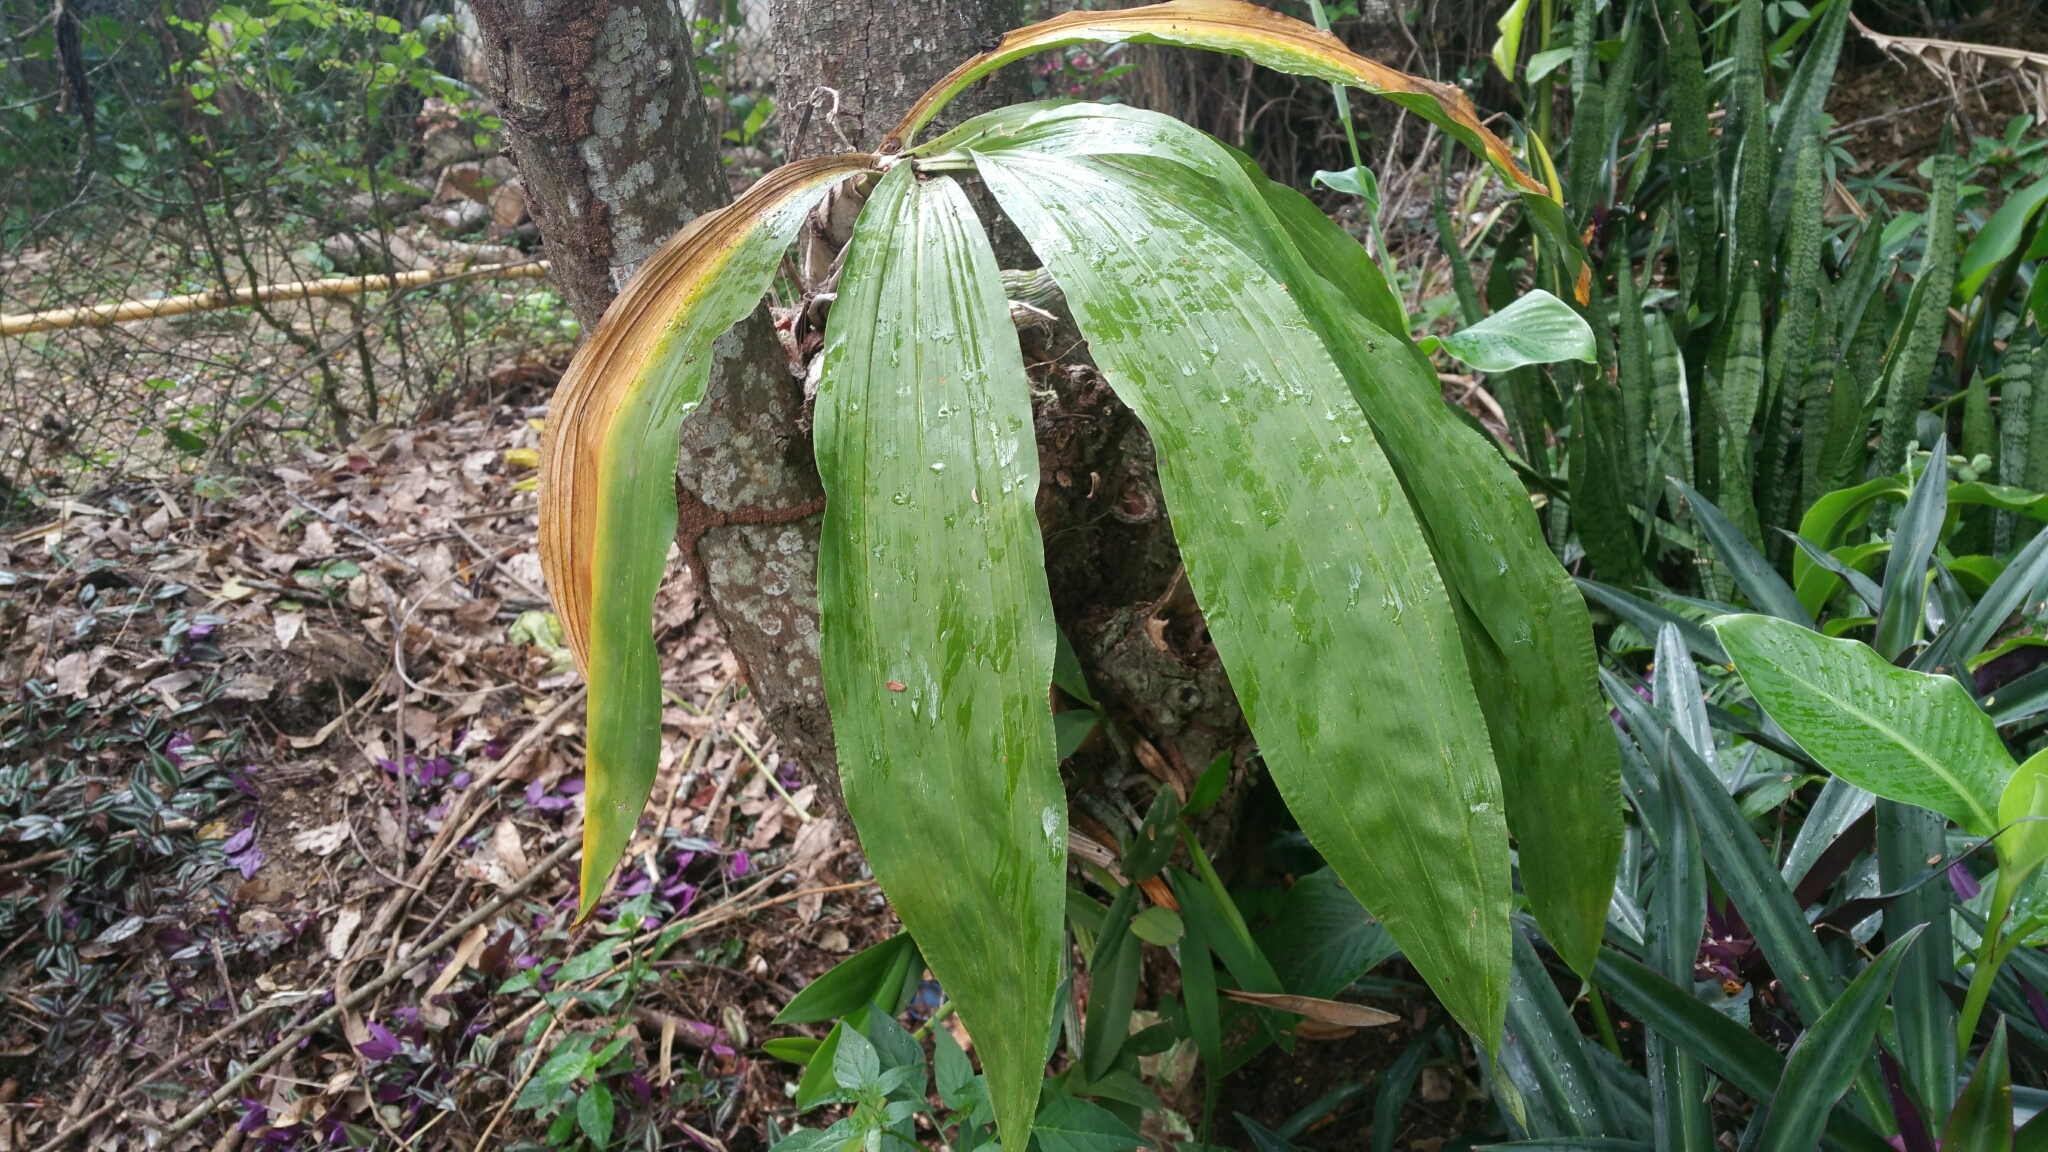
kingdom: Plantae
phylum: Tracheophyta
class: Liliopsida
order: Asparagales
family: Orchidaceae
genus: Catasetum
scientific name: Catasetum integerrimum
